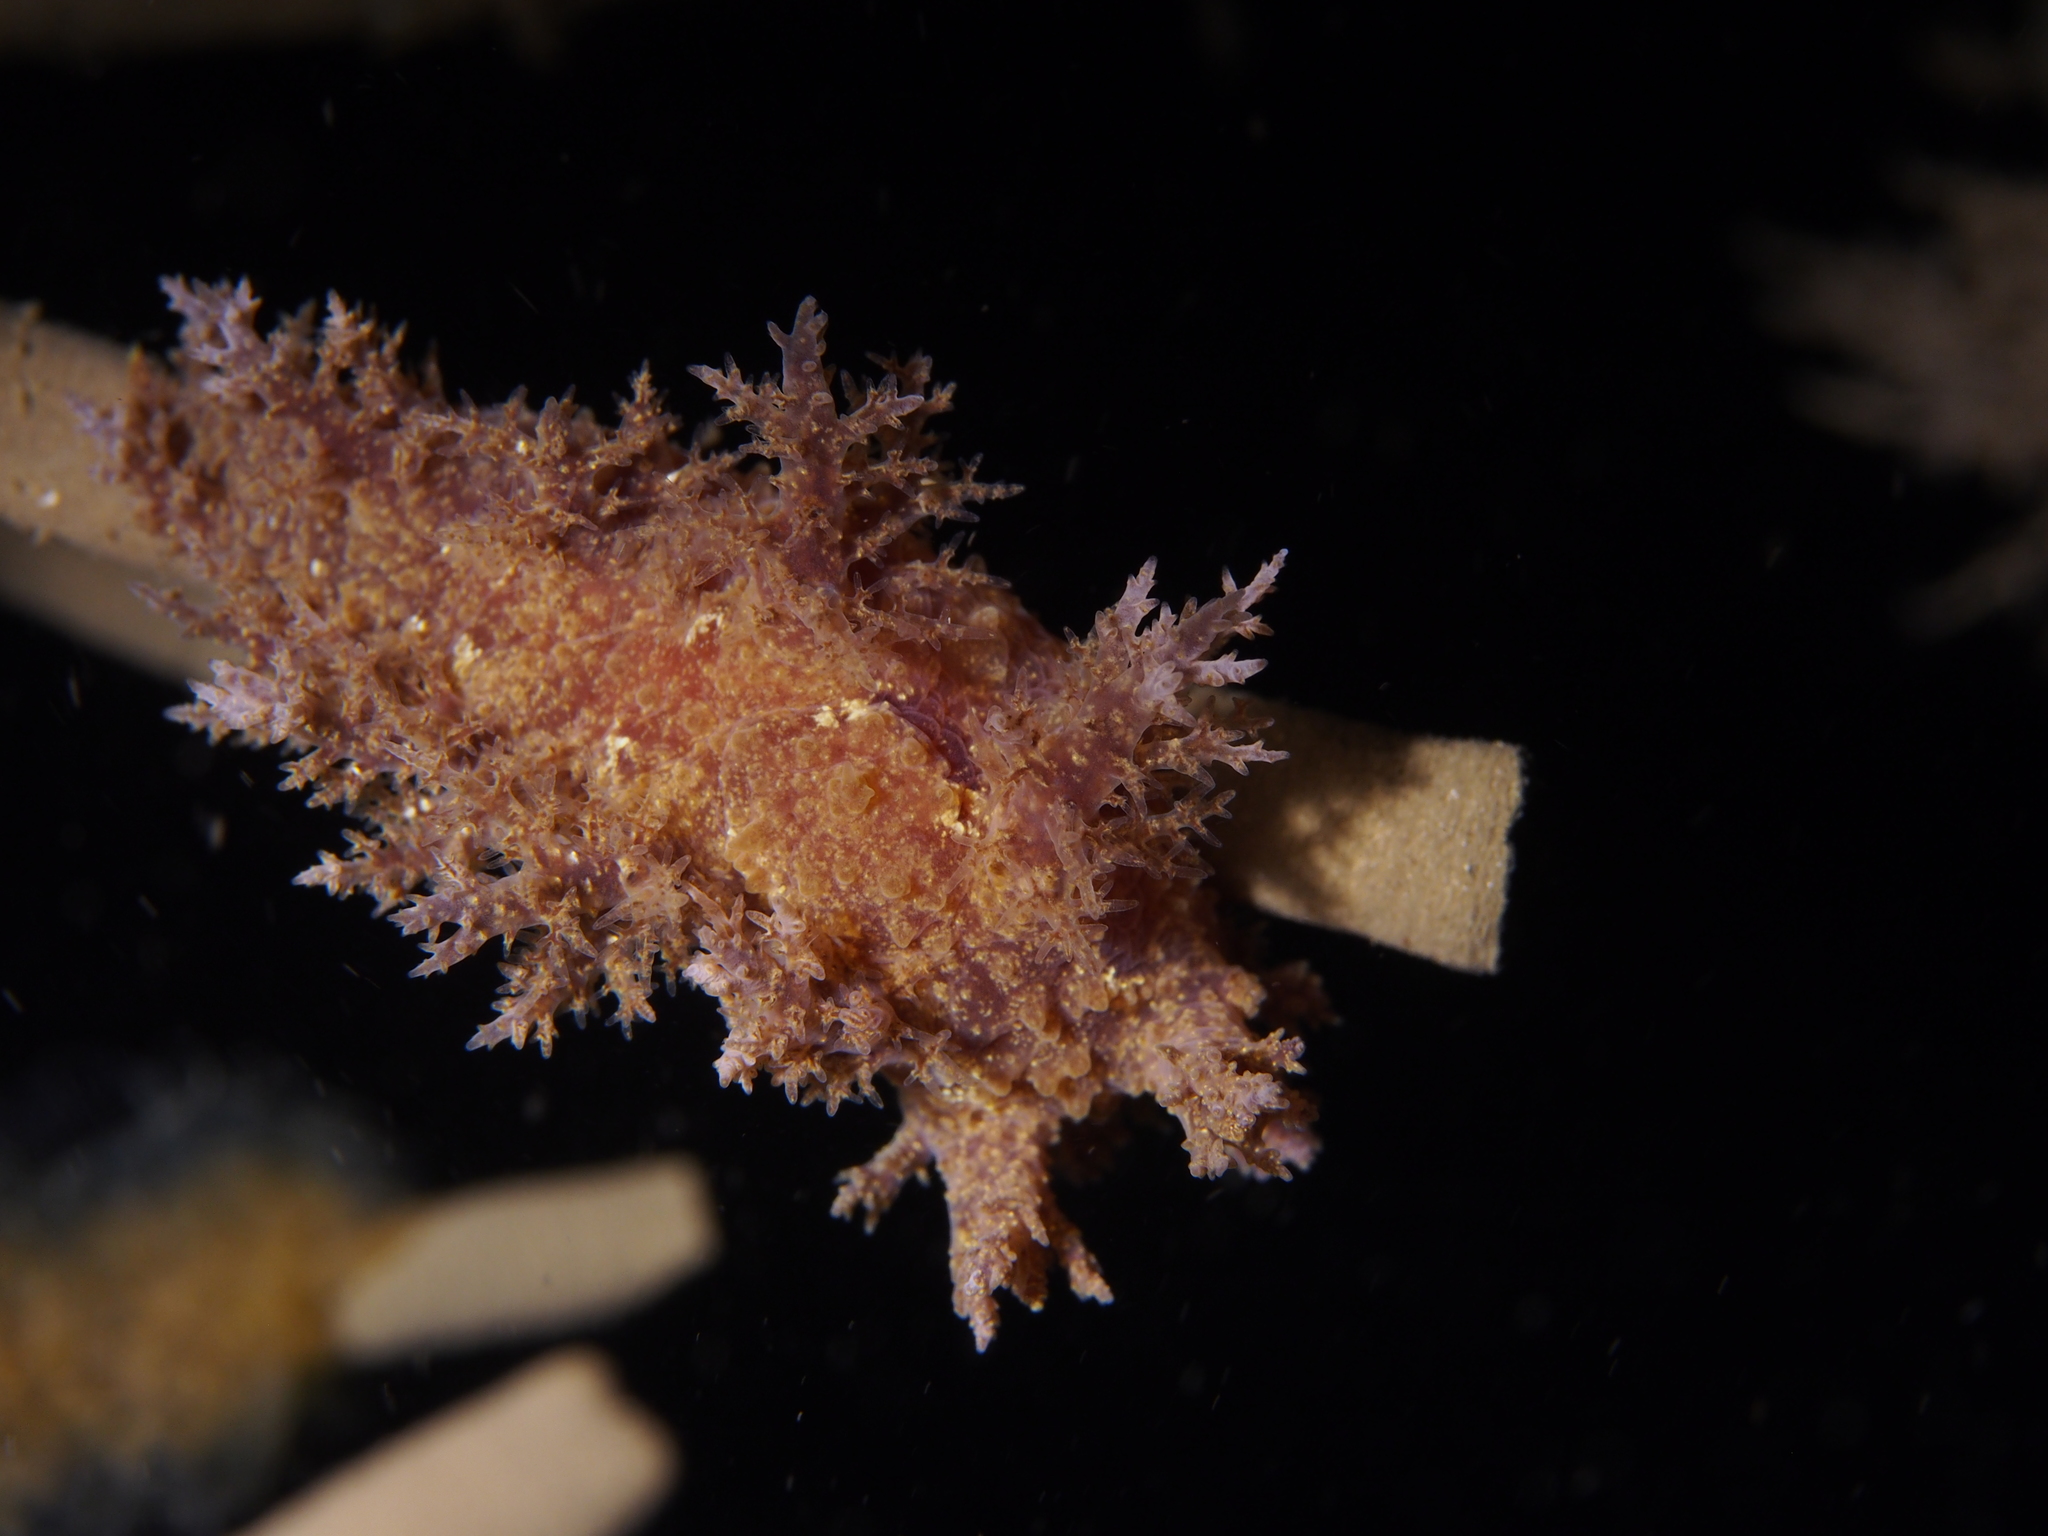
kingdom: Animalia
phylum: Mollusca
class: Gastropoda
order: Nudibranchia
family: Dendronotidae
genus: Dendronotus
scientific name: Dendronotus europaeus
